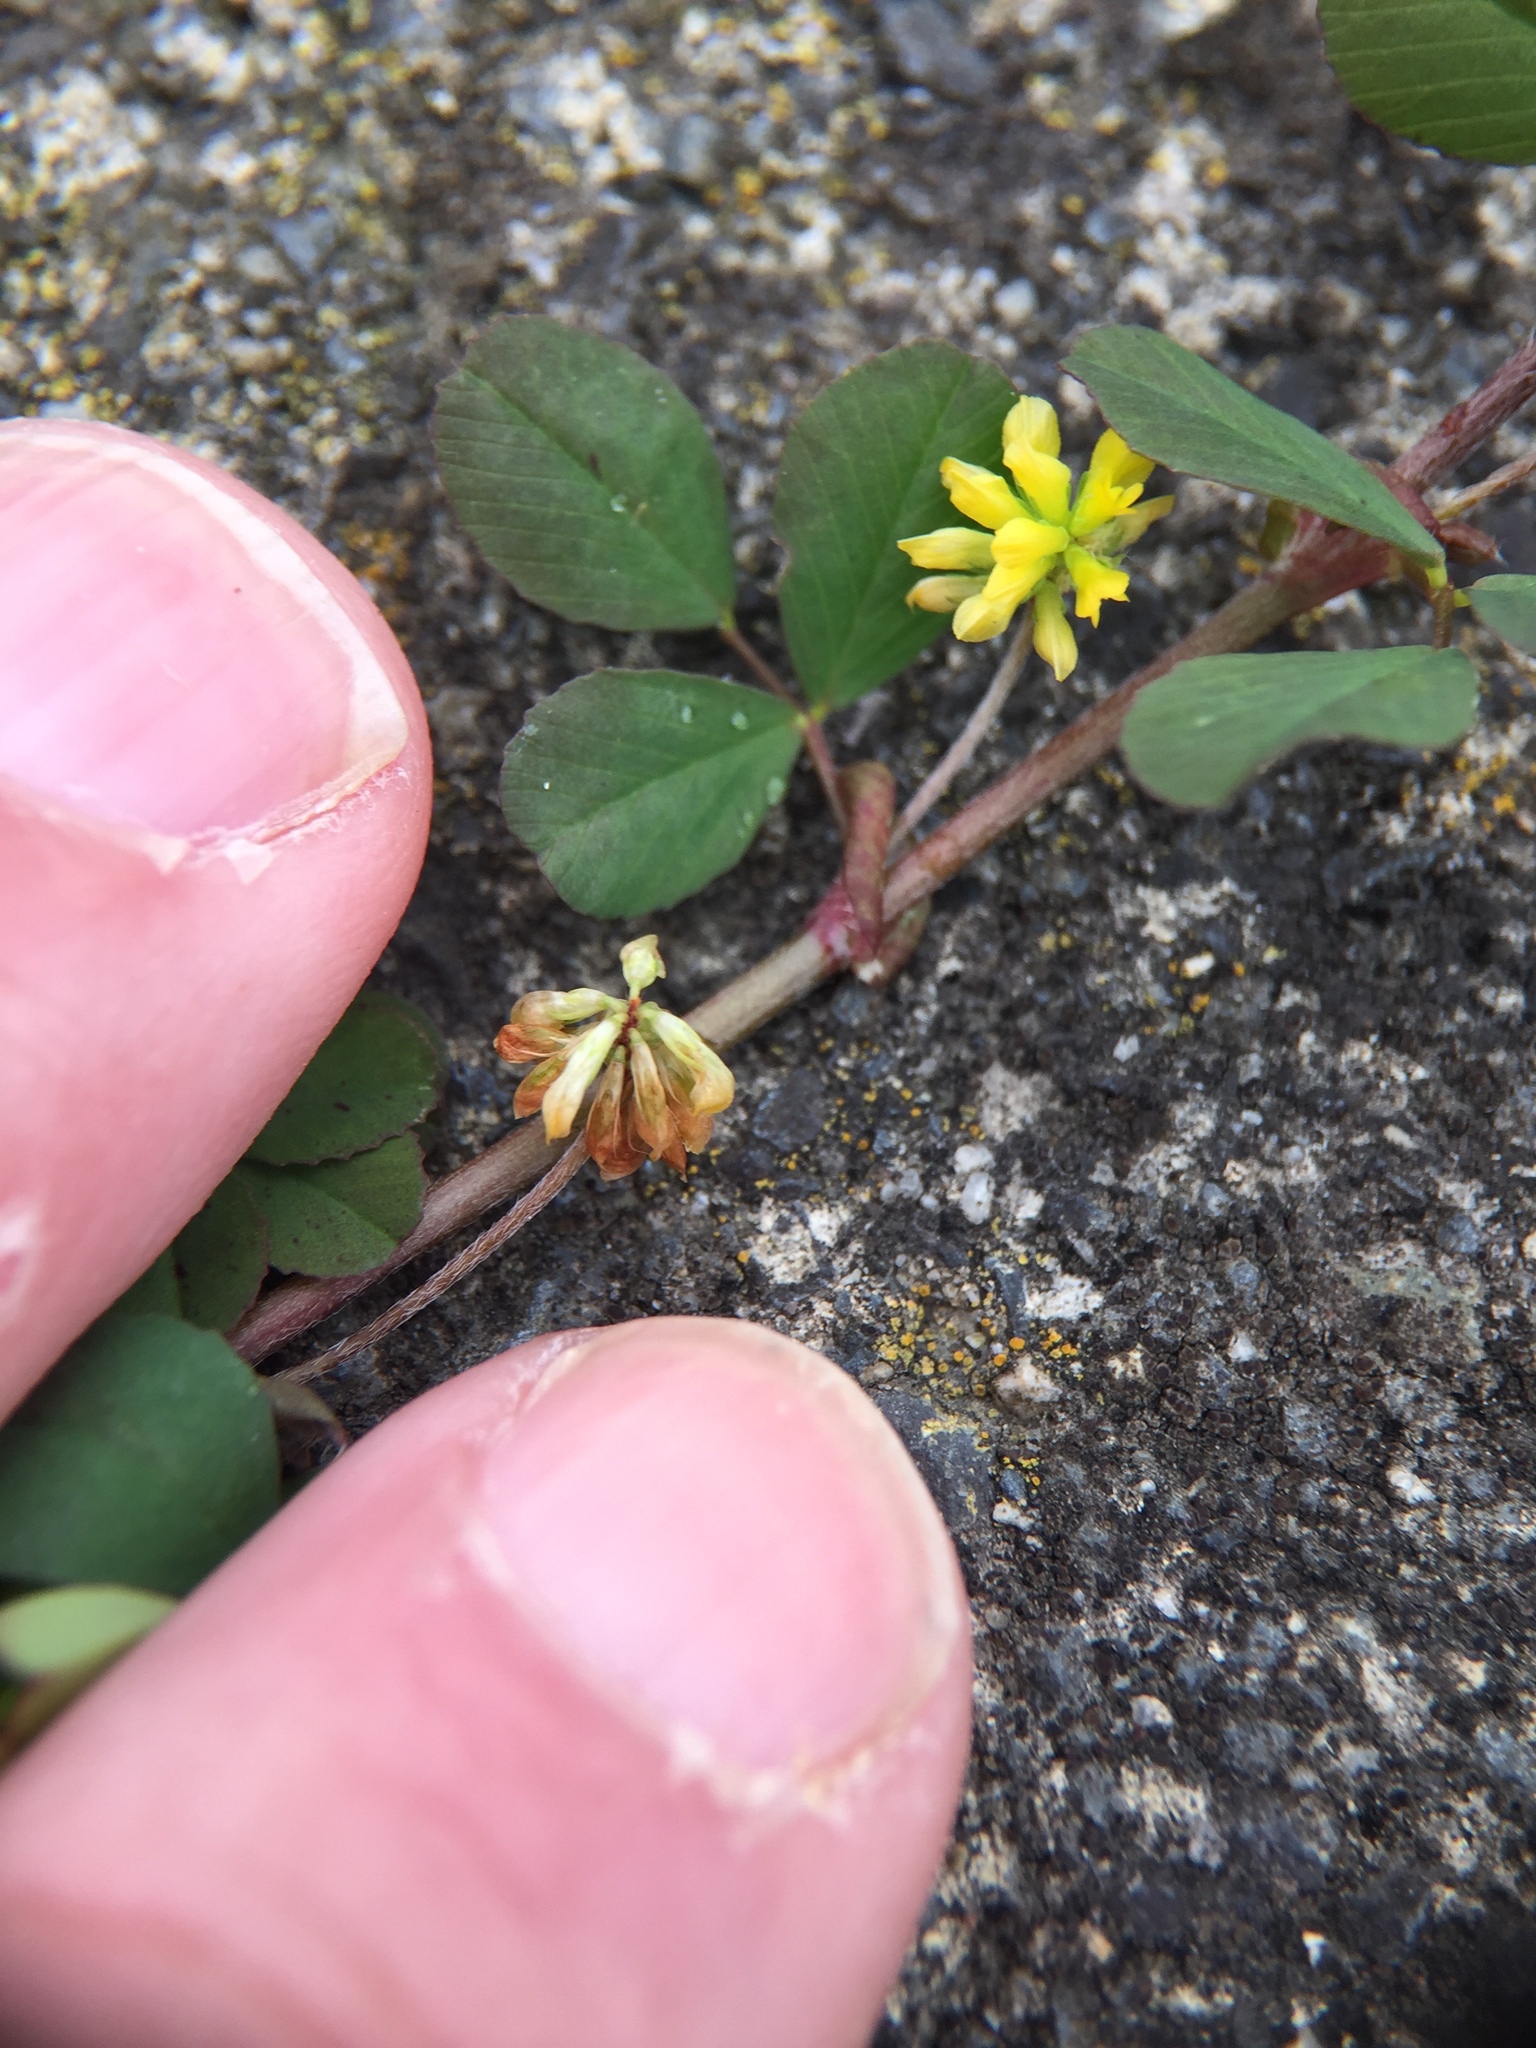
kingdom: Plantae
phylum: Tracheophyta
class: Magnoliopsida
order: Fabales
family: Fabaceae
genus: Trifolium
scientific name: Trifolium dubium
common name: Suckling clover
